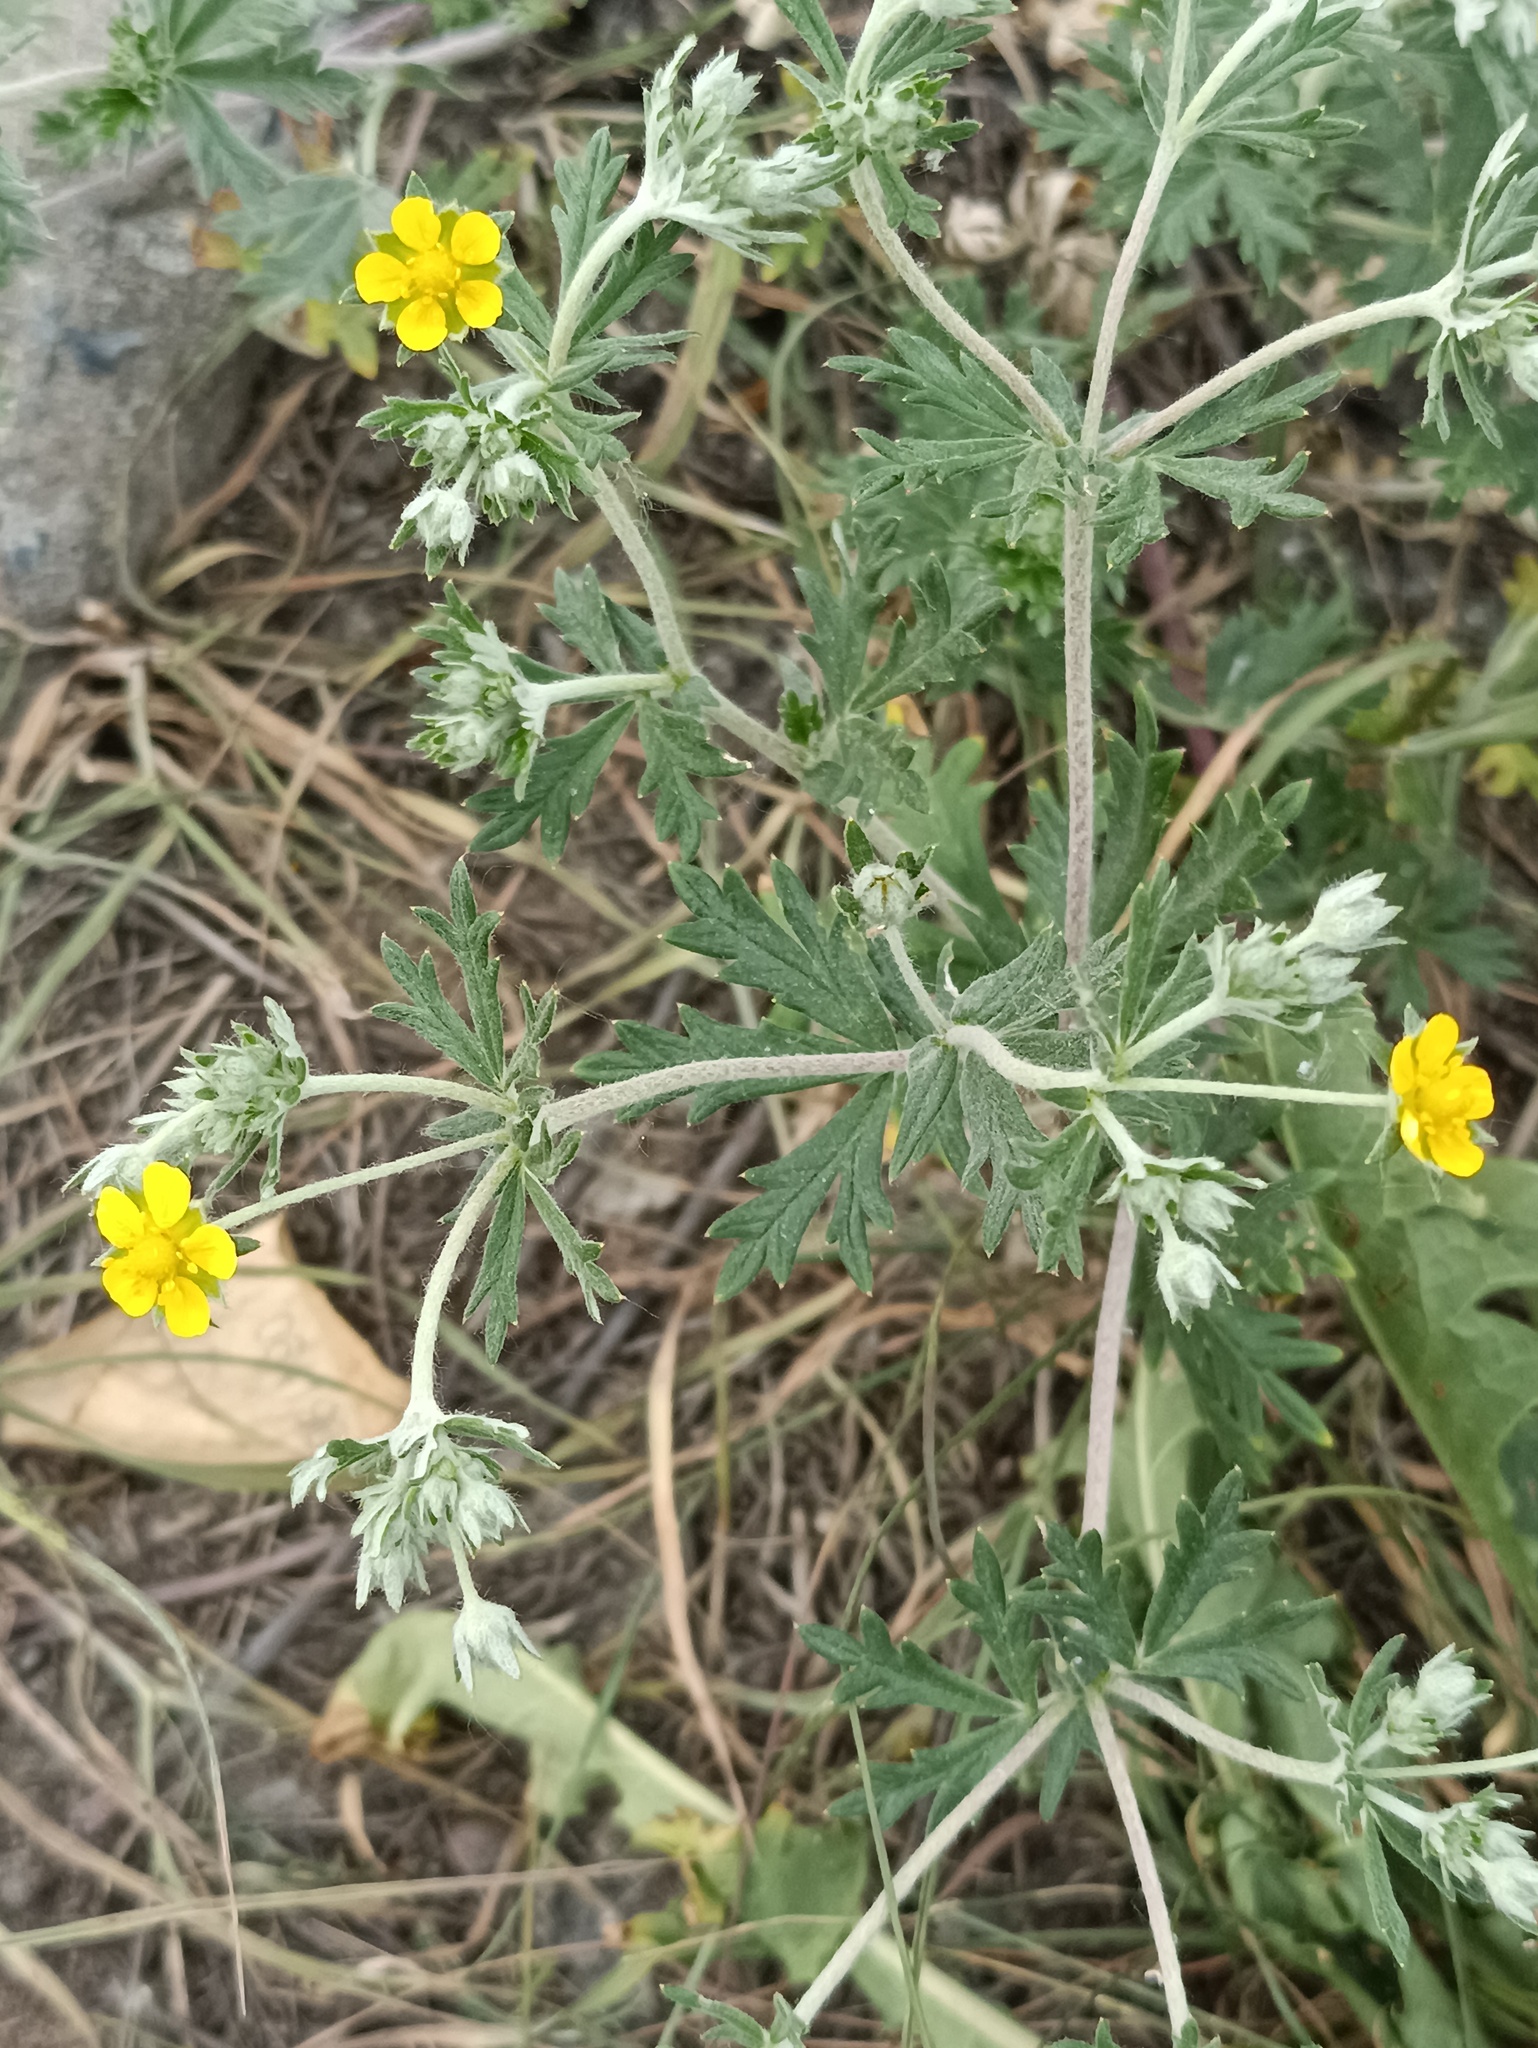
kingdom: Plantae
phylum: Tracheophyta
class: Magnoliopsida
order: Rosales
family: Rosaceae
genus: Potentilla
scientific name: Potentilla argentea
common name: Hoary cinquefoil
